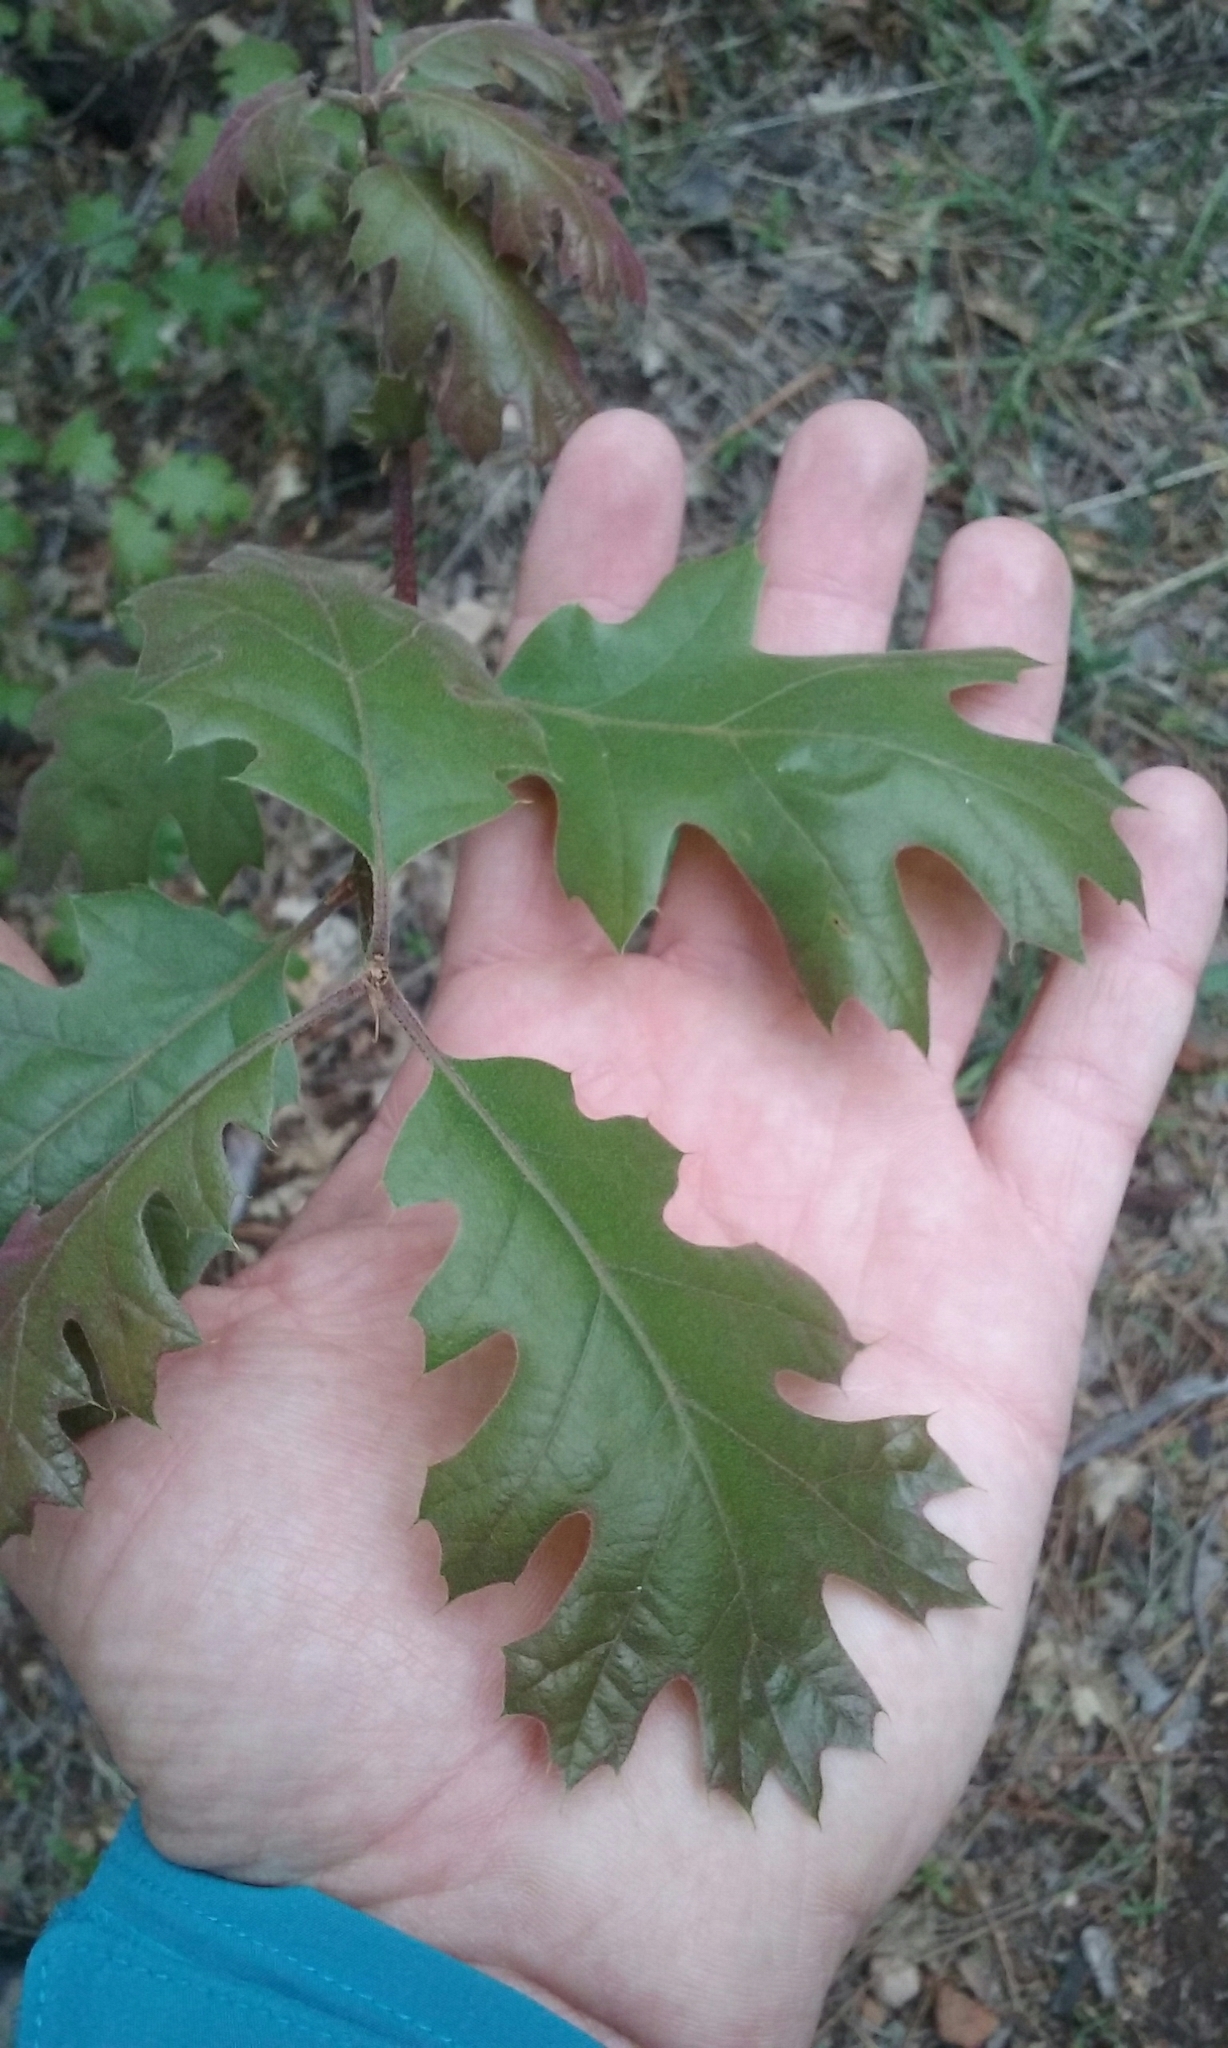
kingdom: Plantae
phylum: Tracheophyta
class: Magnoliopsida
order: Fagales
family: Fagaceae
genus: Quercus
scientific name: Quercus kelloggii
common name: California black oak
